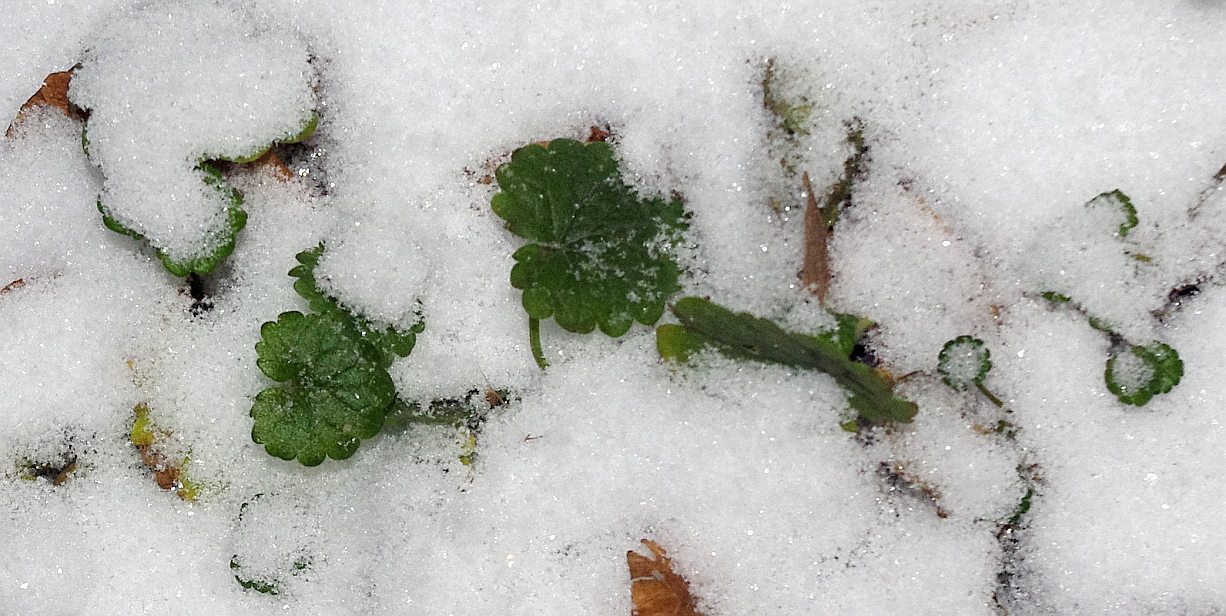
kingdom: Plantae
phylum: Tracheophyta
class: Magnoliopsida
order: Lamiales
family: Lamiaceae
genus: Glechoma
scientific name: Glechoma hederacea
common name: Ground ivy
